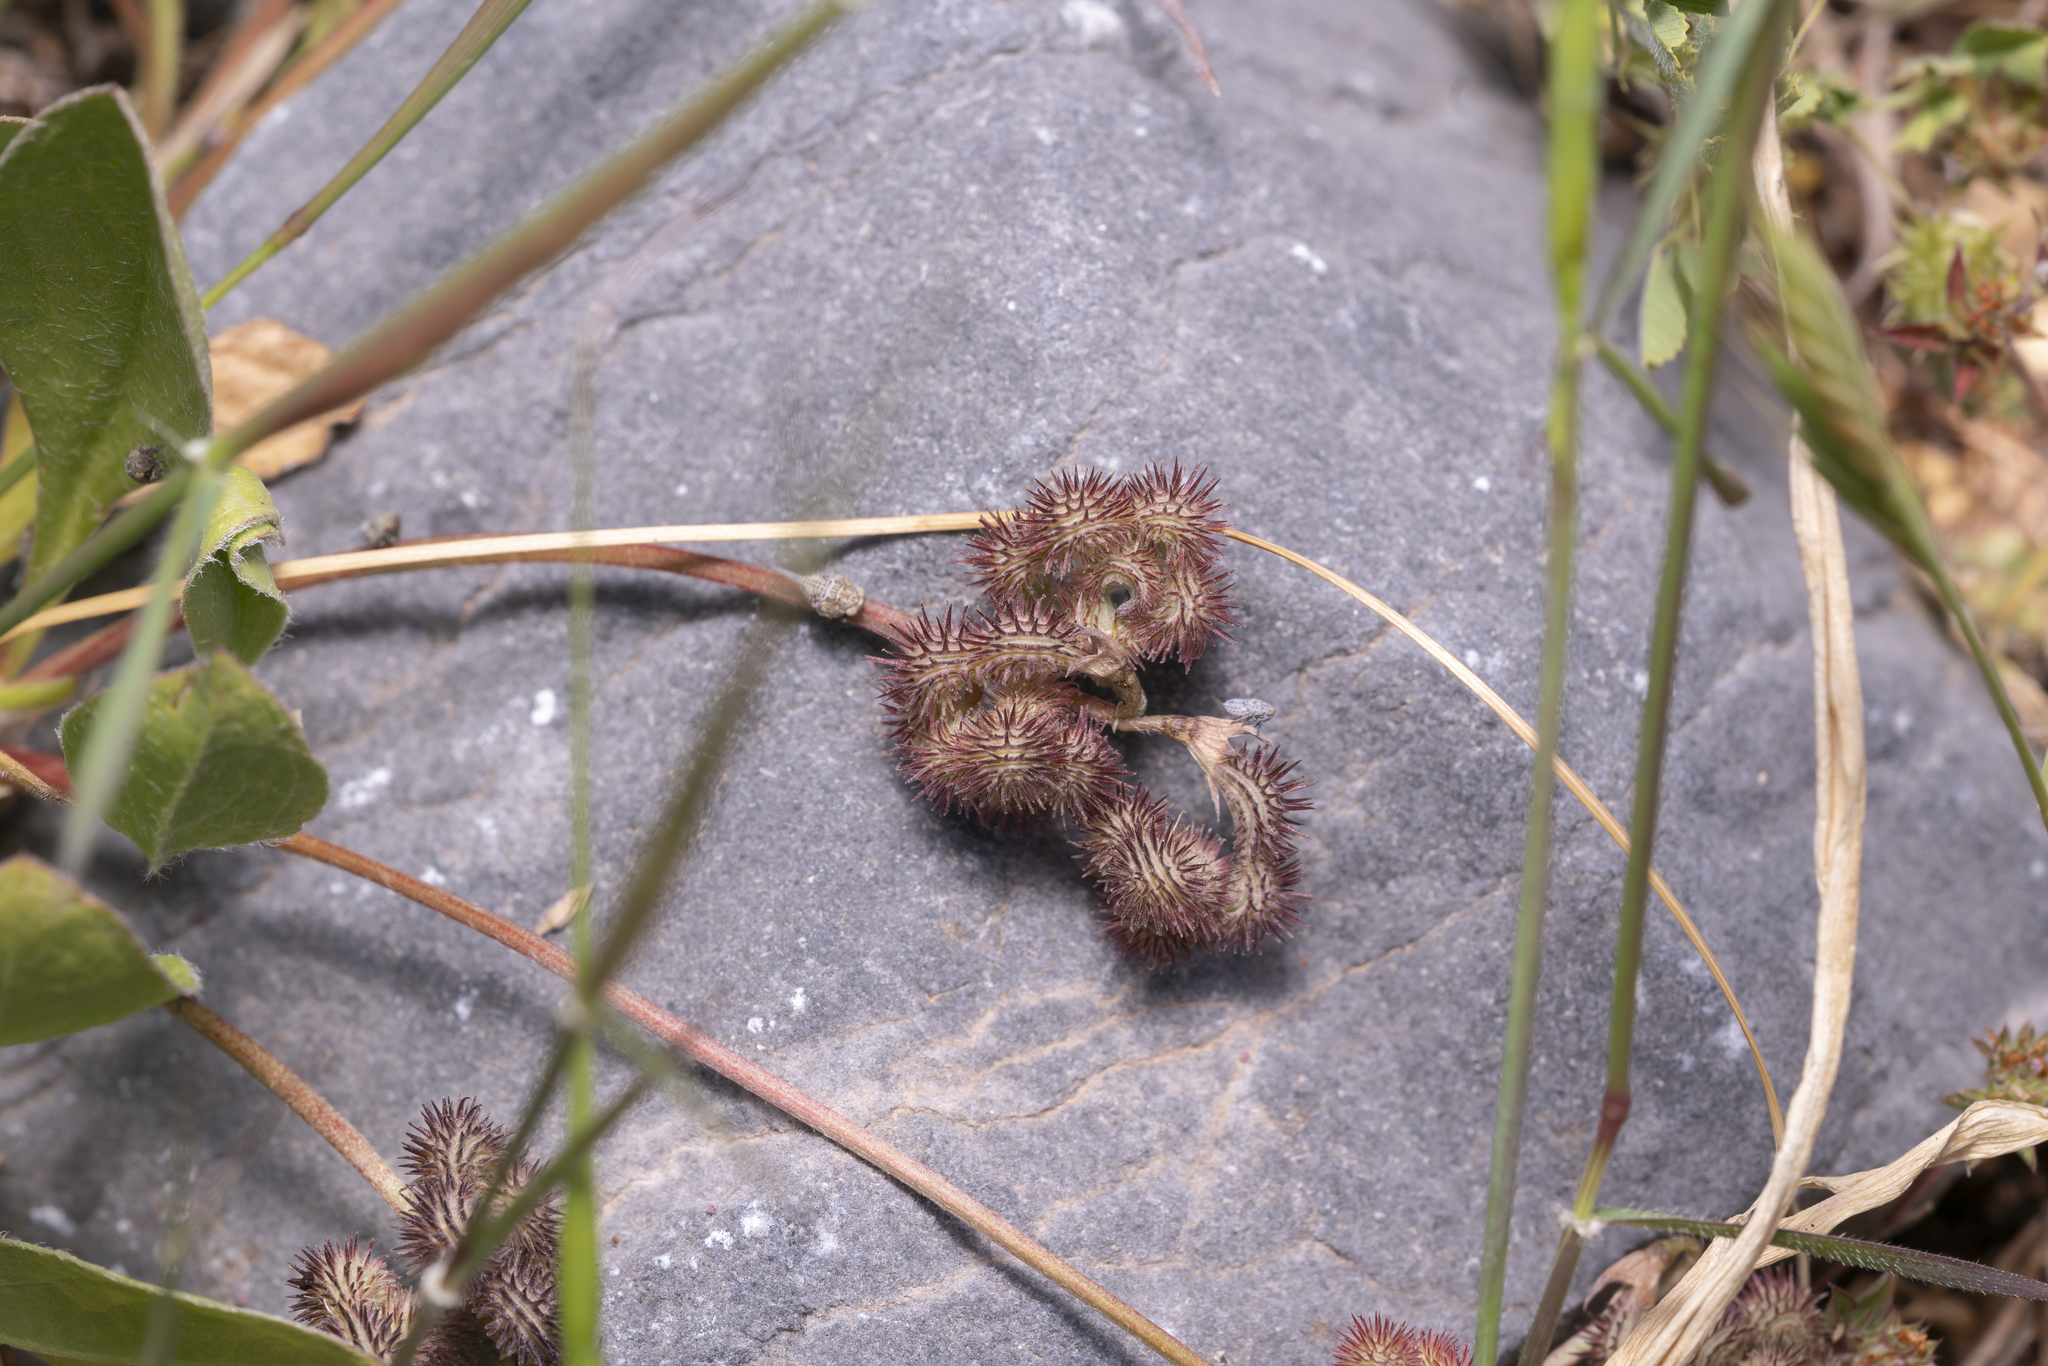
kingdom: Plantae
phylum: Tracheophyta
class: Magnoliopsida
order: Fabales
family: Fabaceae
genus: Scorpiurus
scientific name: Scorpiurus muricatus
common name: Caterpillar-plant
